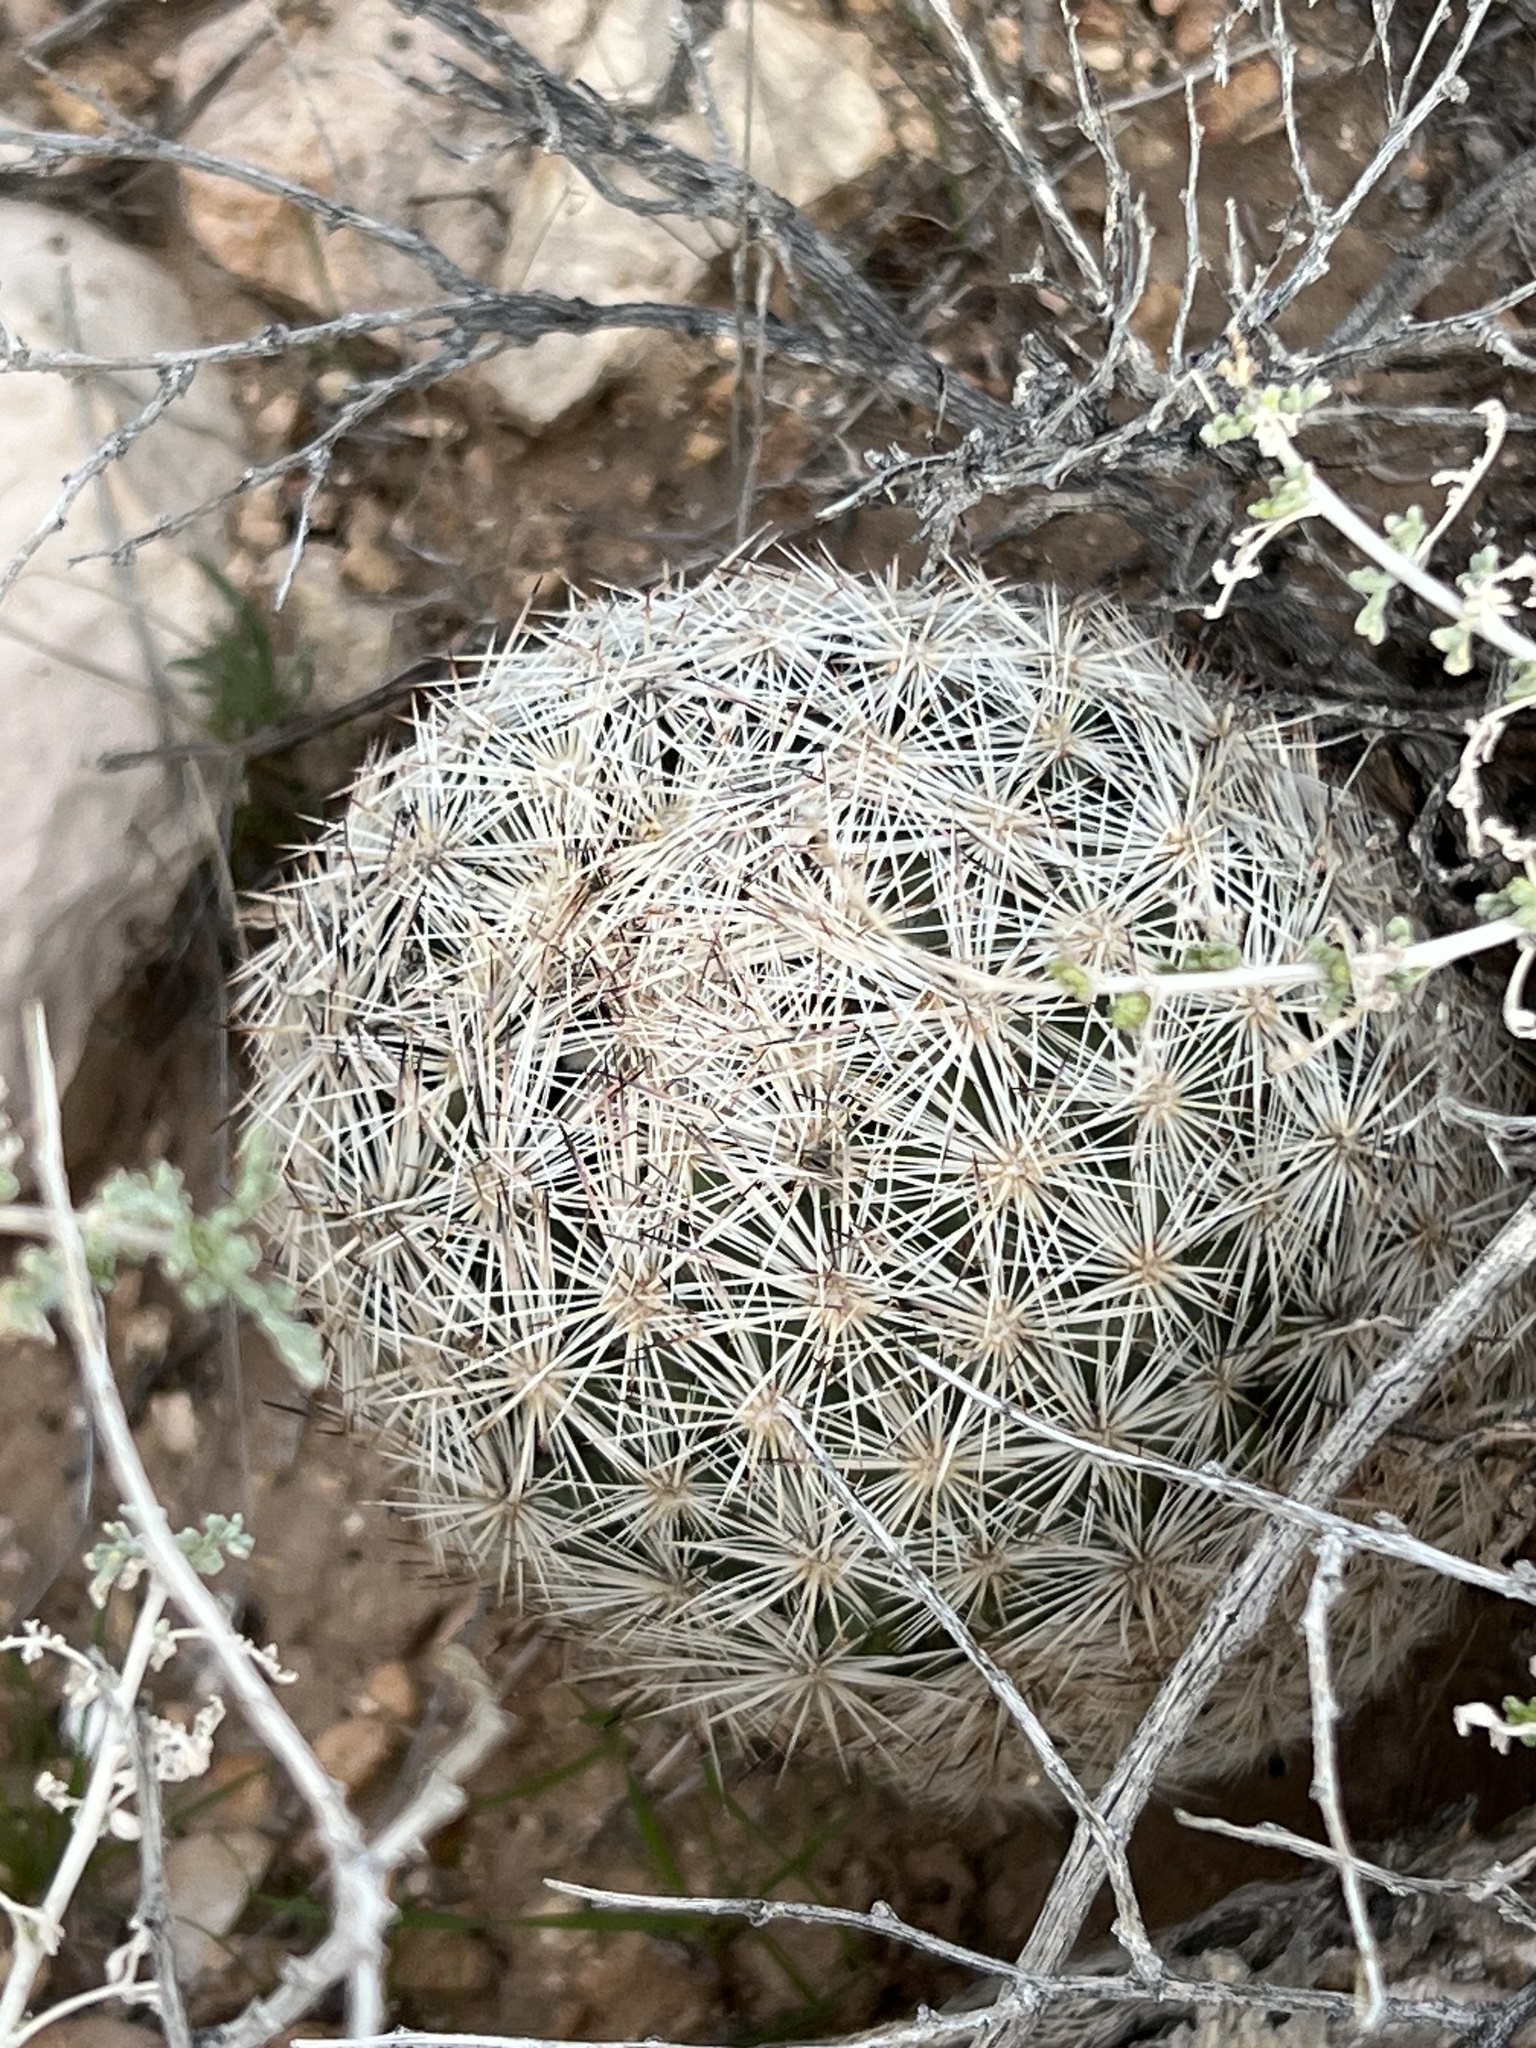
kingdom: Plantae
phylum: Tracheophyta
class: Magnoliopsida
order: Caryophyllales
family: Cactaceae
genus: Pelecyphora
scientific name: Pelecyphora dasyacantha
